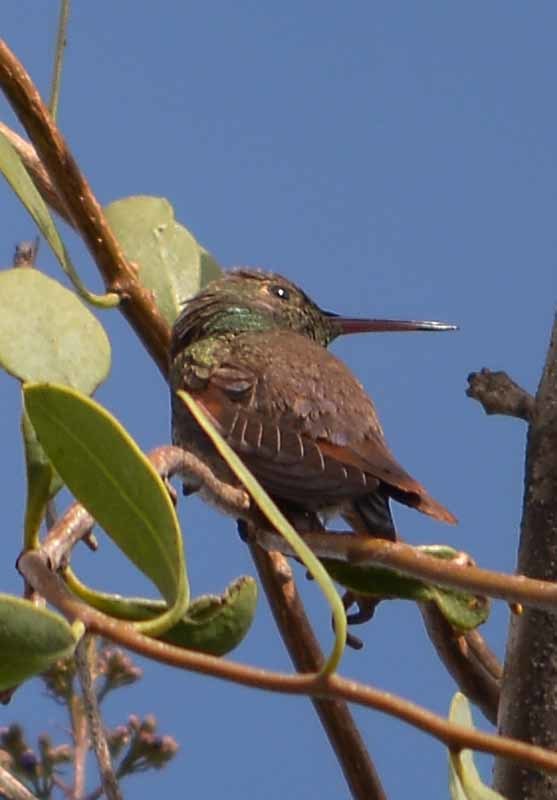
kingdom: Animalia
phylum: Chordata
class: Aves
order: Apodiformes
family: Trochilidae
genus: Saucerottia
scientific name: Saucerottia beryllina
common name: Berylline hummingbird
